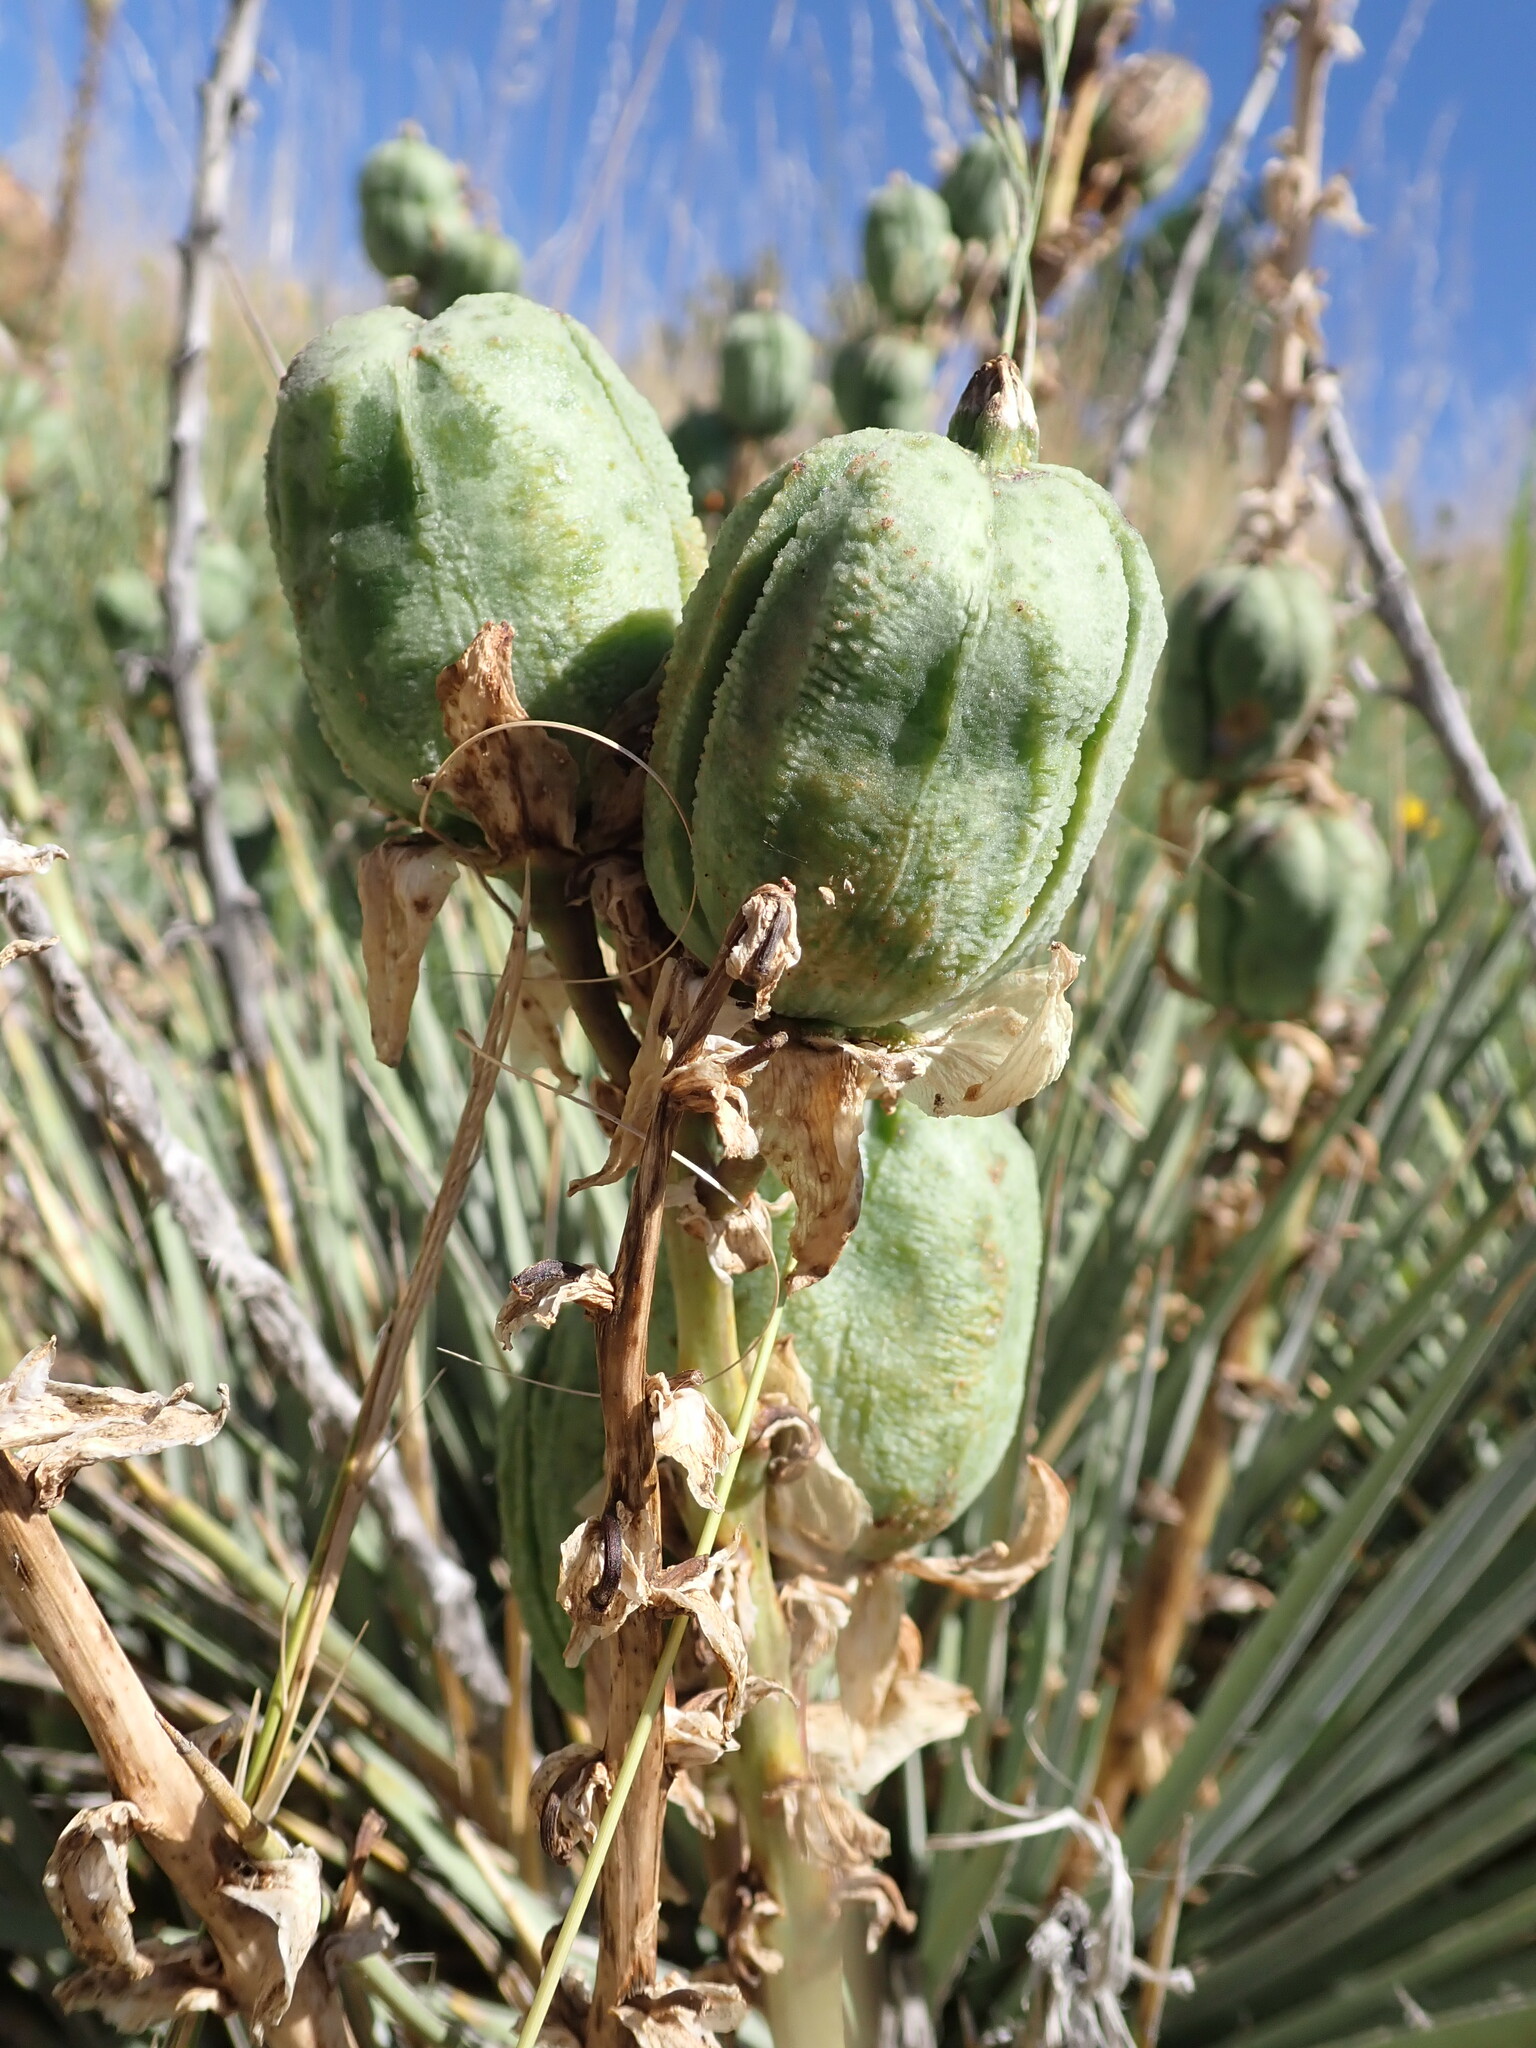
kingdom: Plantae
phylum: Tracheophyta
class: Liliopsida
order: Asparagales
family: Asparagaceae
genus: Yucca
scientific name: Yucca glauca
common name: Great plains yucca
